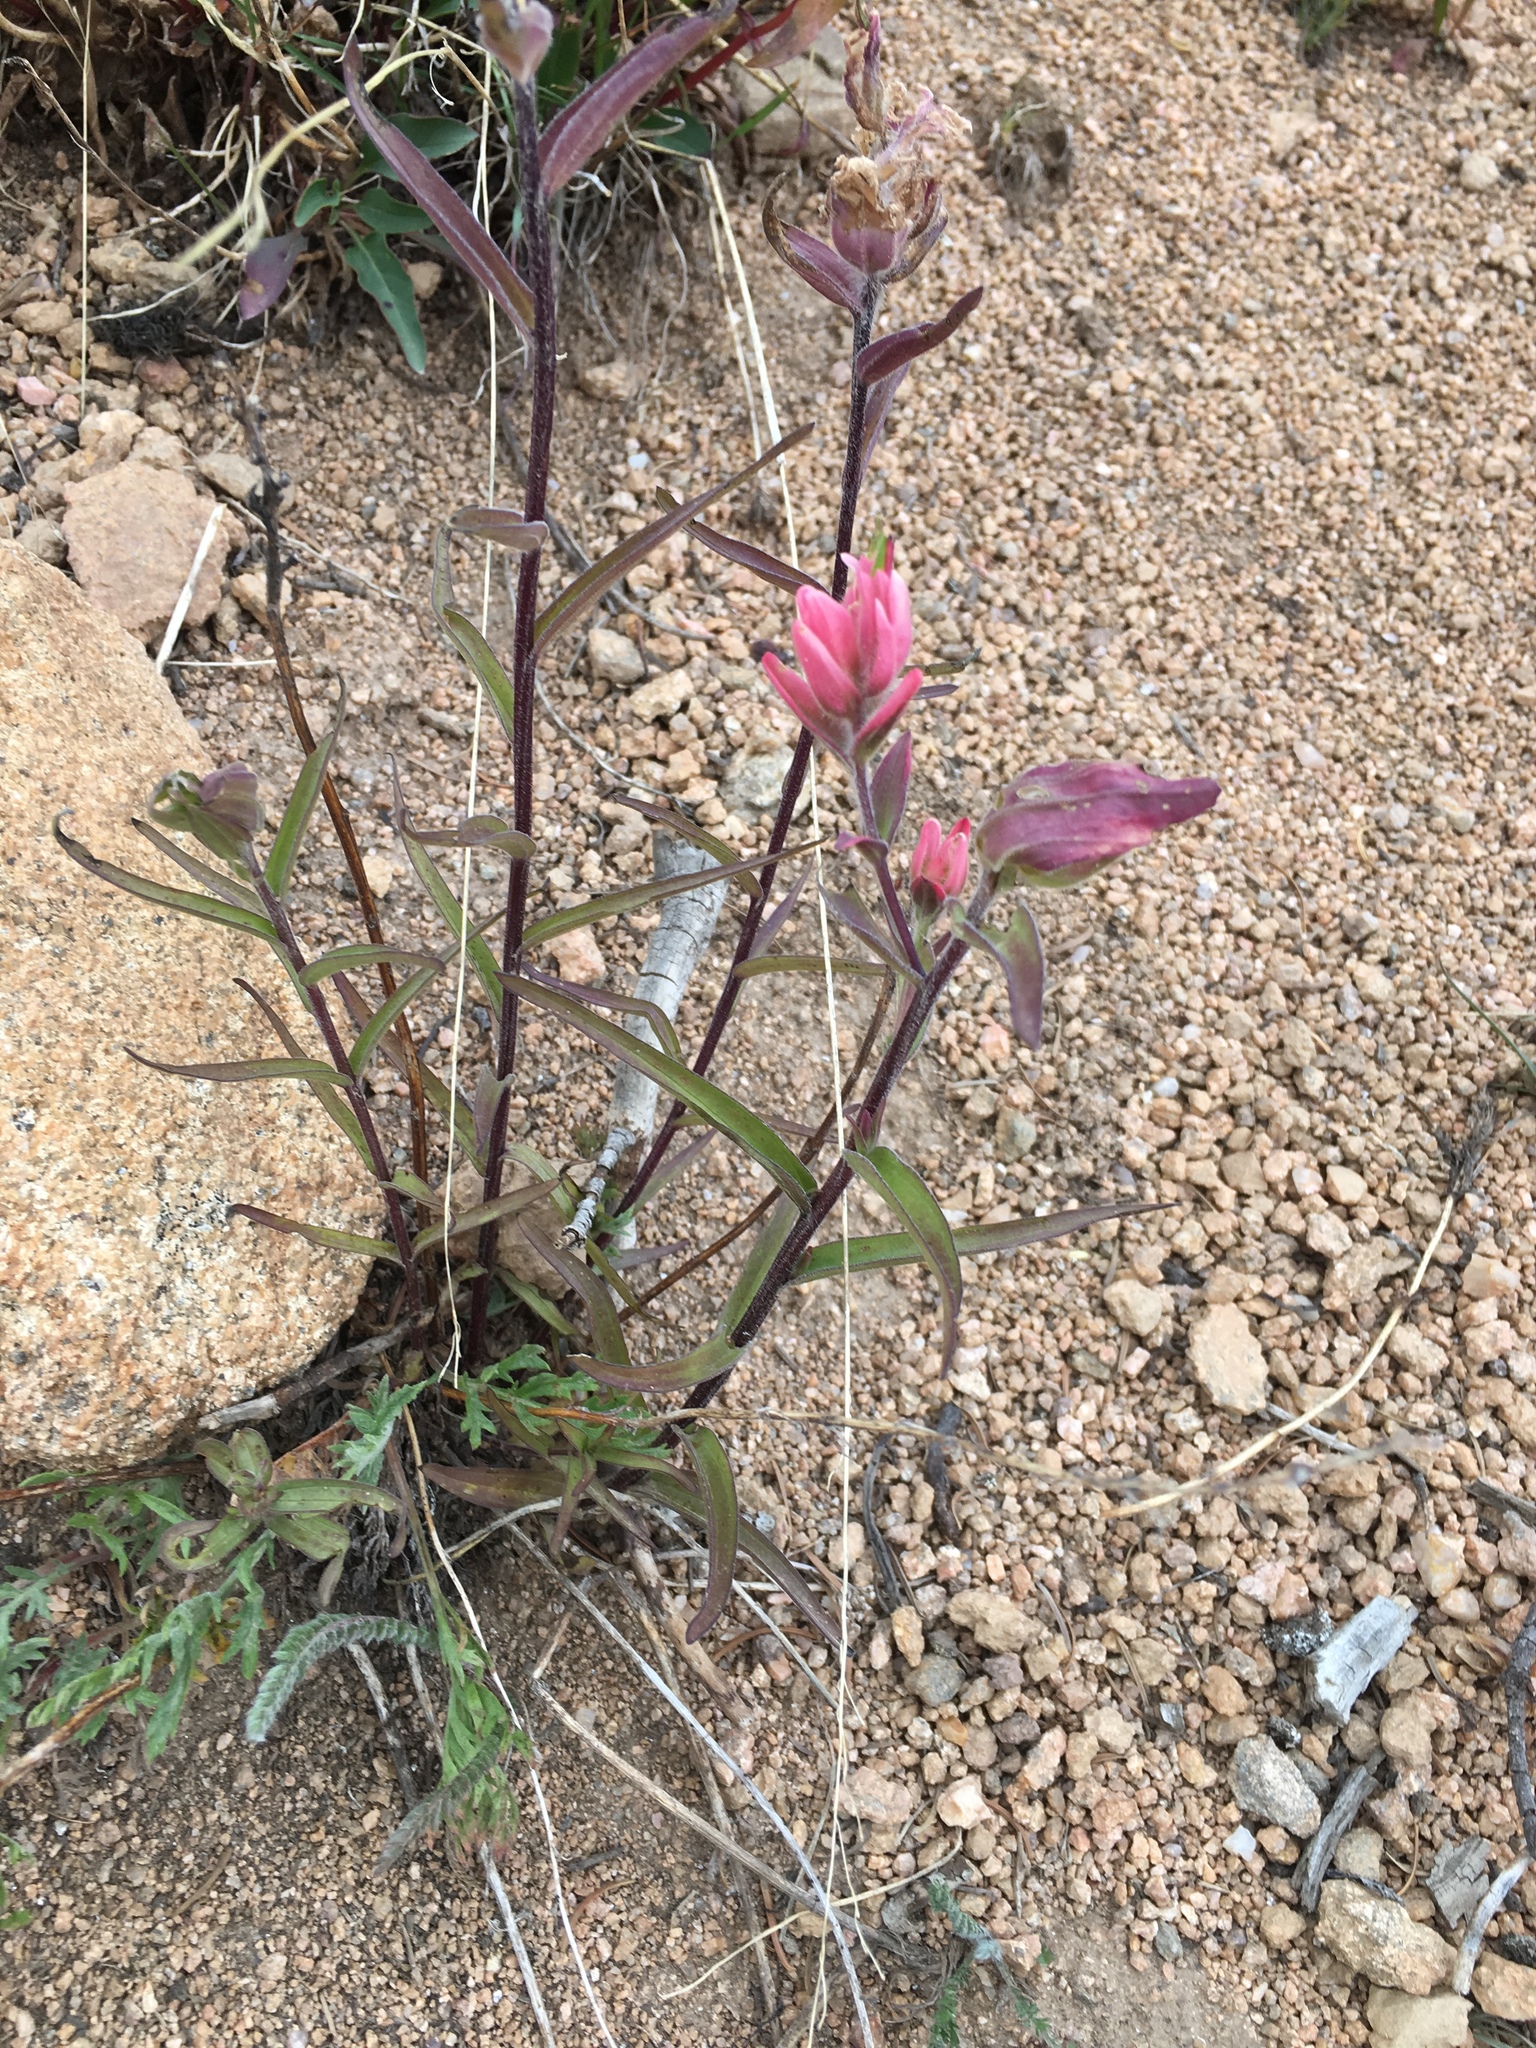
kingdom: Plantae
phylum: Tracheophyta
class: Magnoliopsida
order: Lamiales
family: Orobanchaceae
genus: Castilleja
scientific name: Castilleja rhexifolia
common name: Rocky mountain paintbrush
